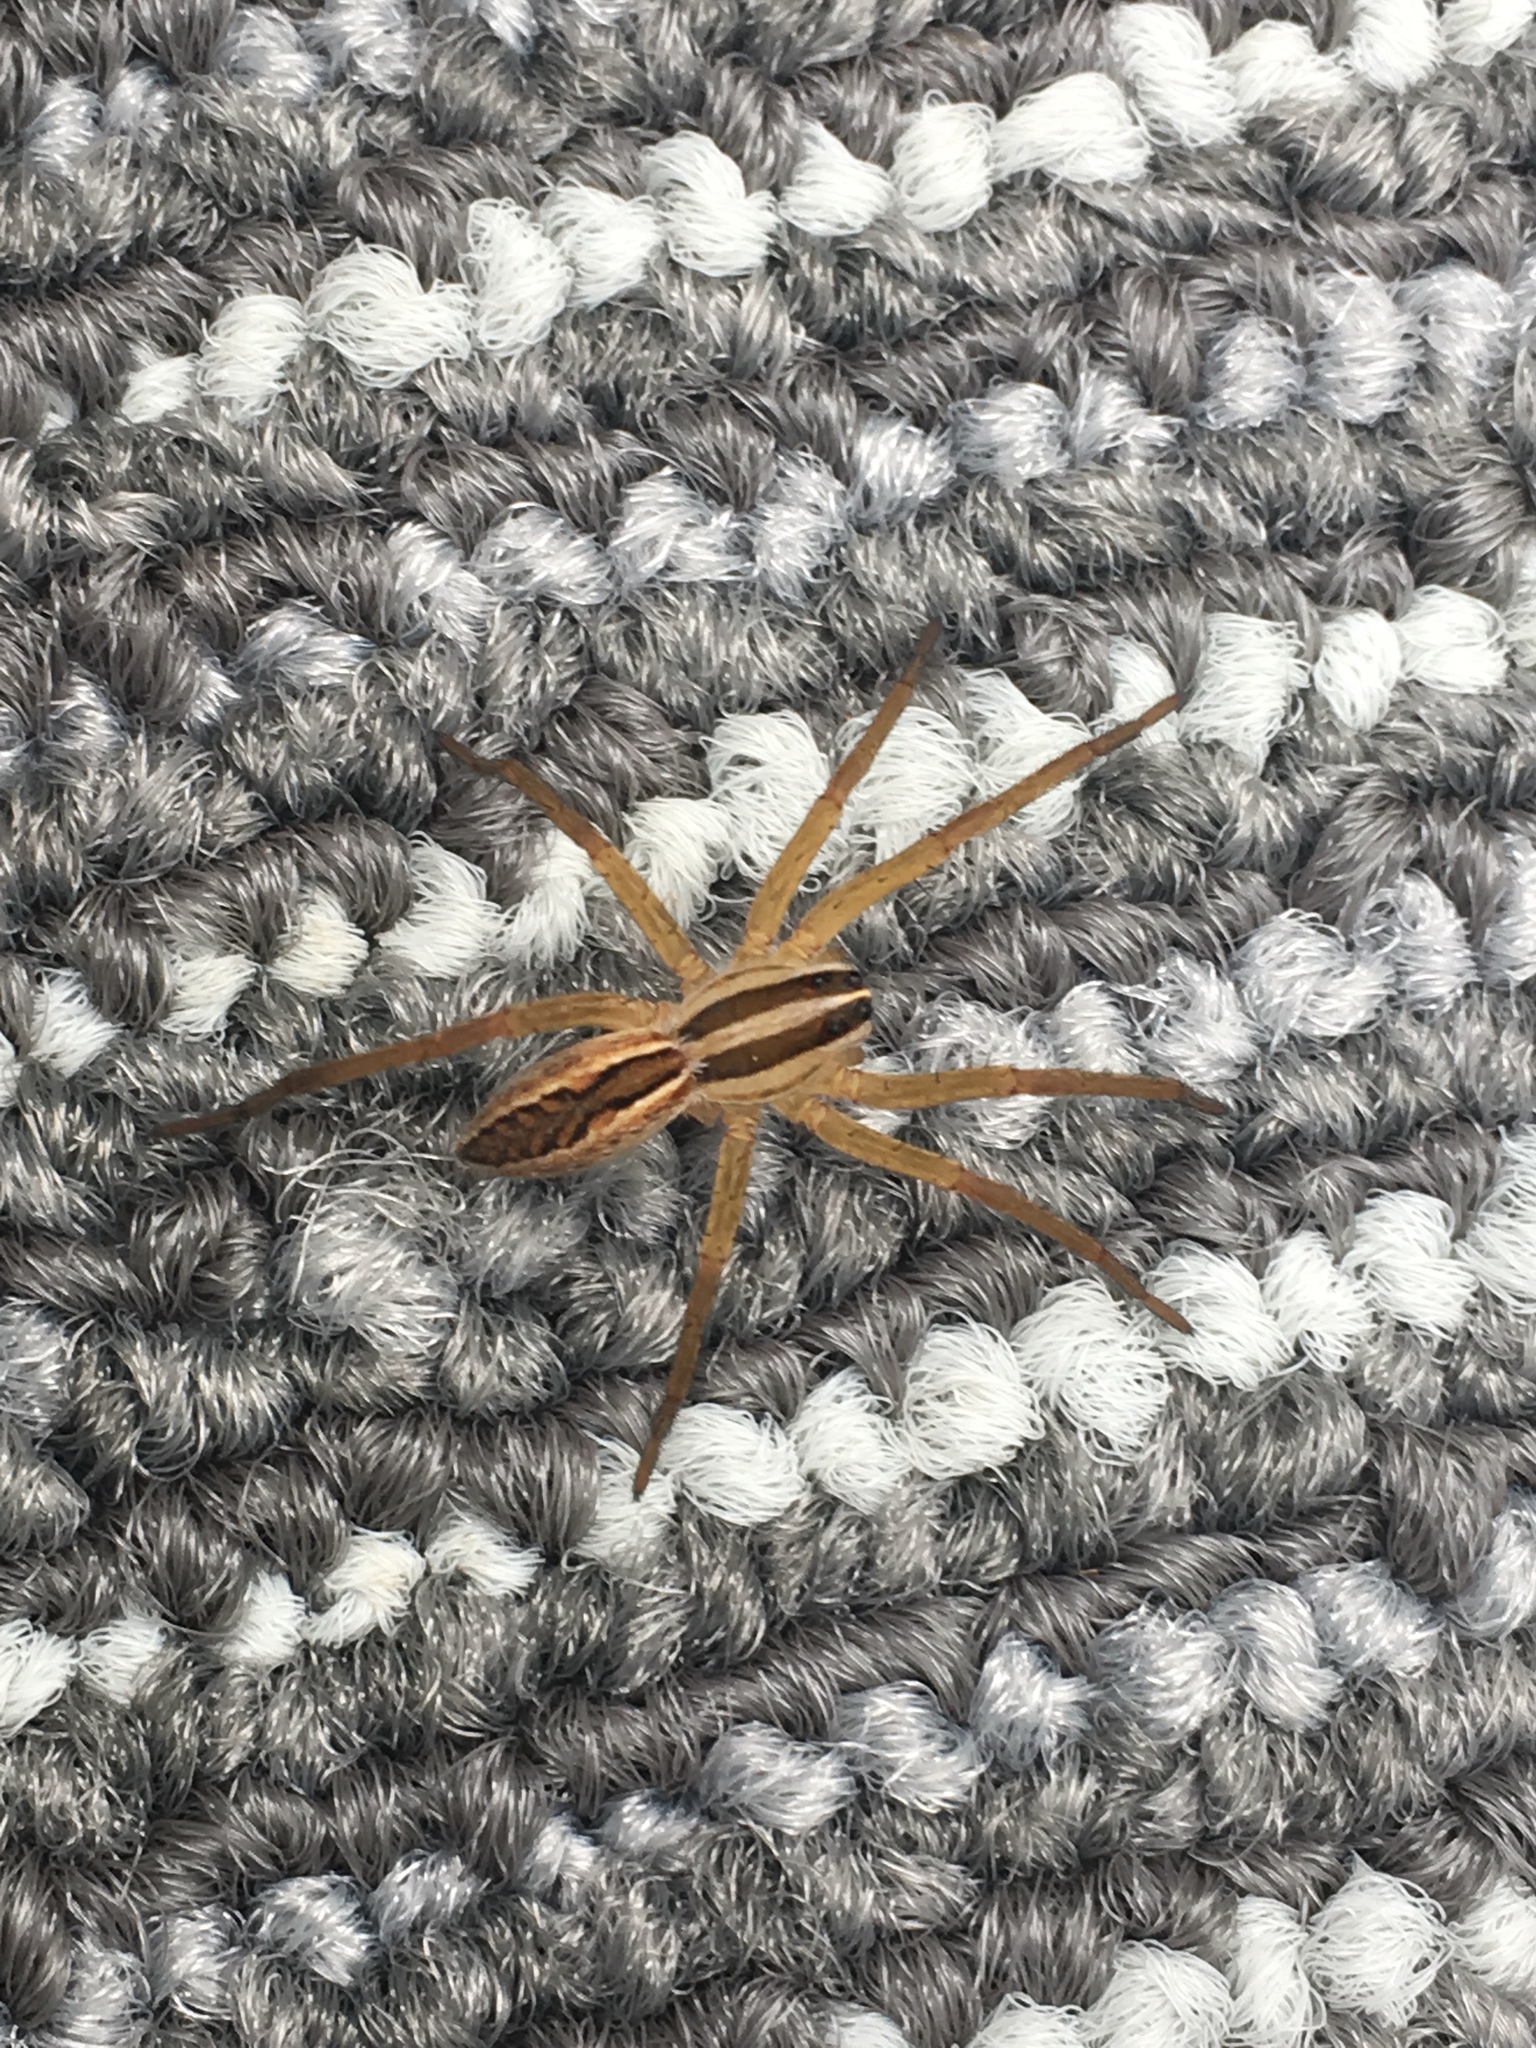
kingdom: Animalia
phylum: Arthropoda
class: Arachnida
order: Araneae
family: Lycosidae
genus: Rabidosa
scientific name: Rabidosa rabida
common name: Rabid wolf spider
